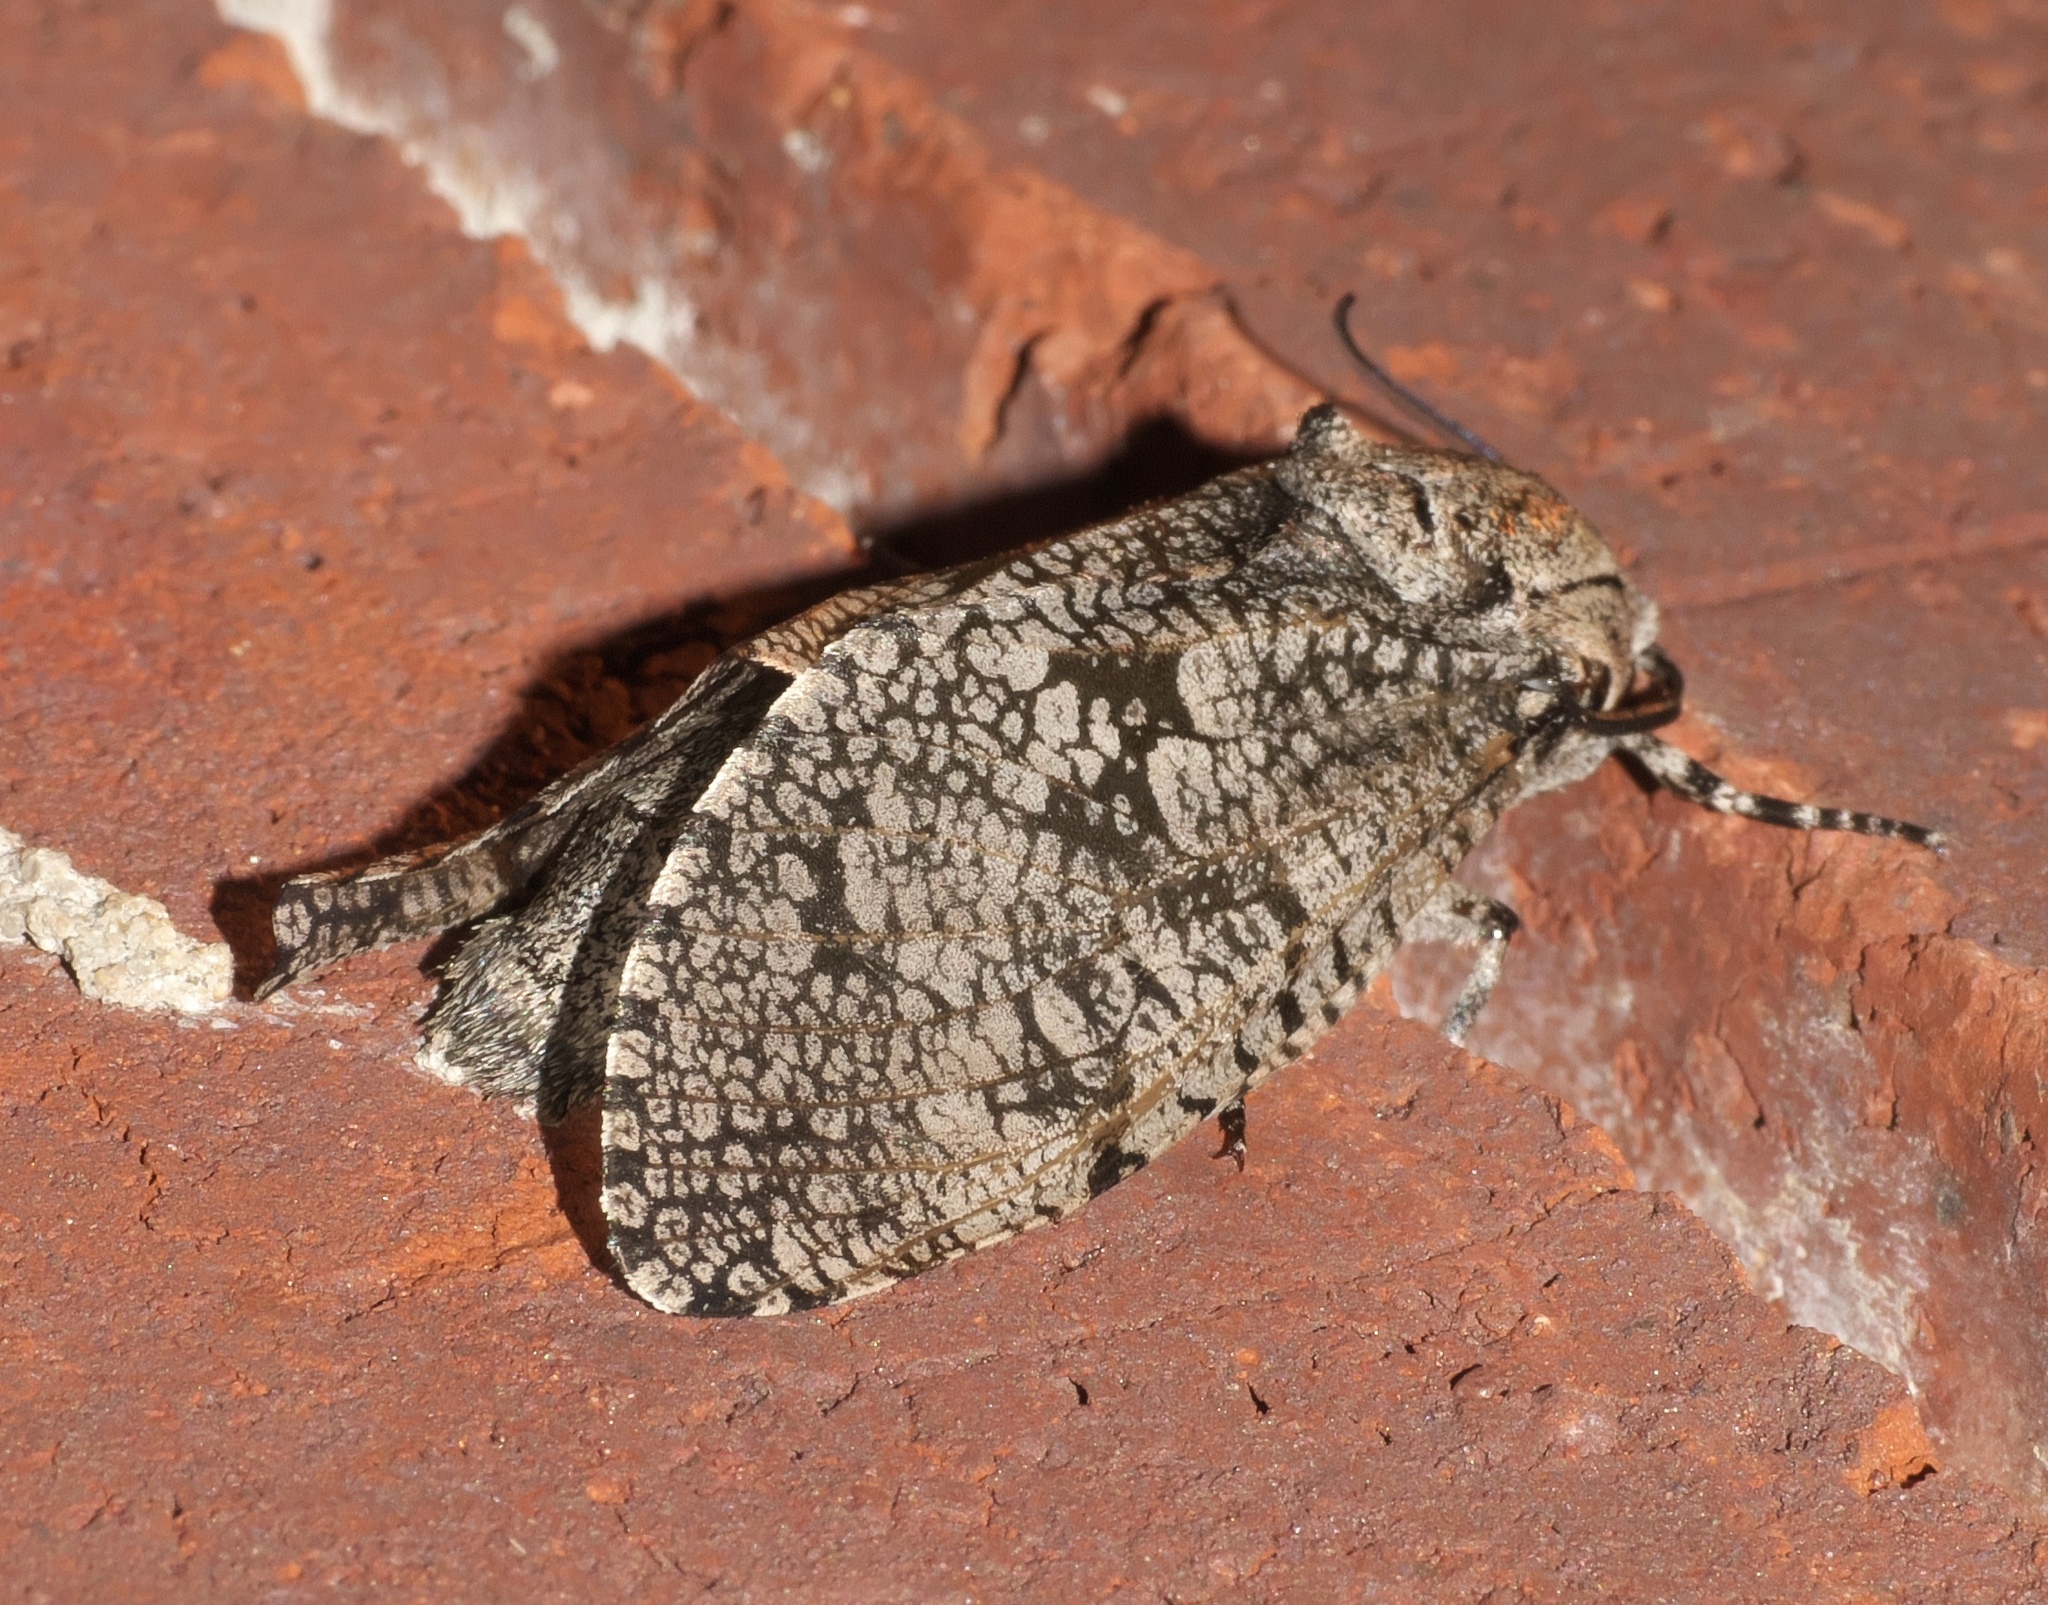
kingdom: Animalia
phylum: Arthropoda
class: Insecta
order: Lepidoptera
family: Cossidae
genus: Prionoxystus
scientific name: Prionoxystus robiniae
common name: Carpenterworm
